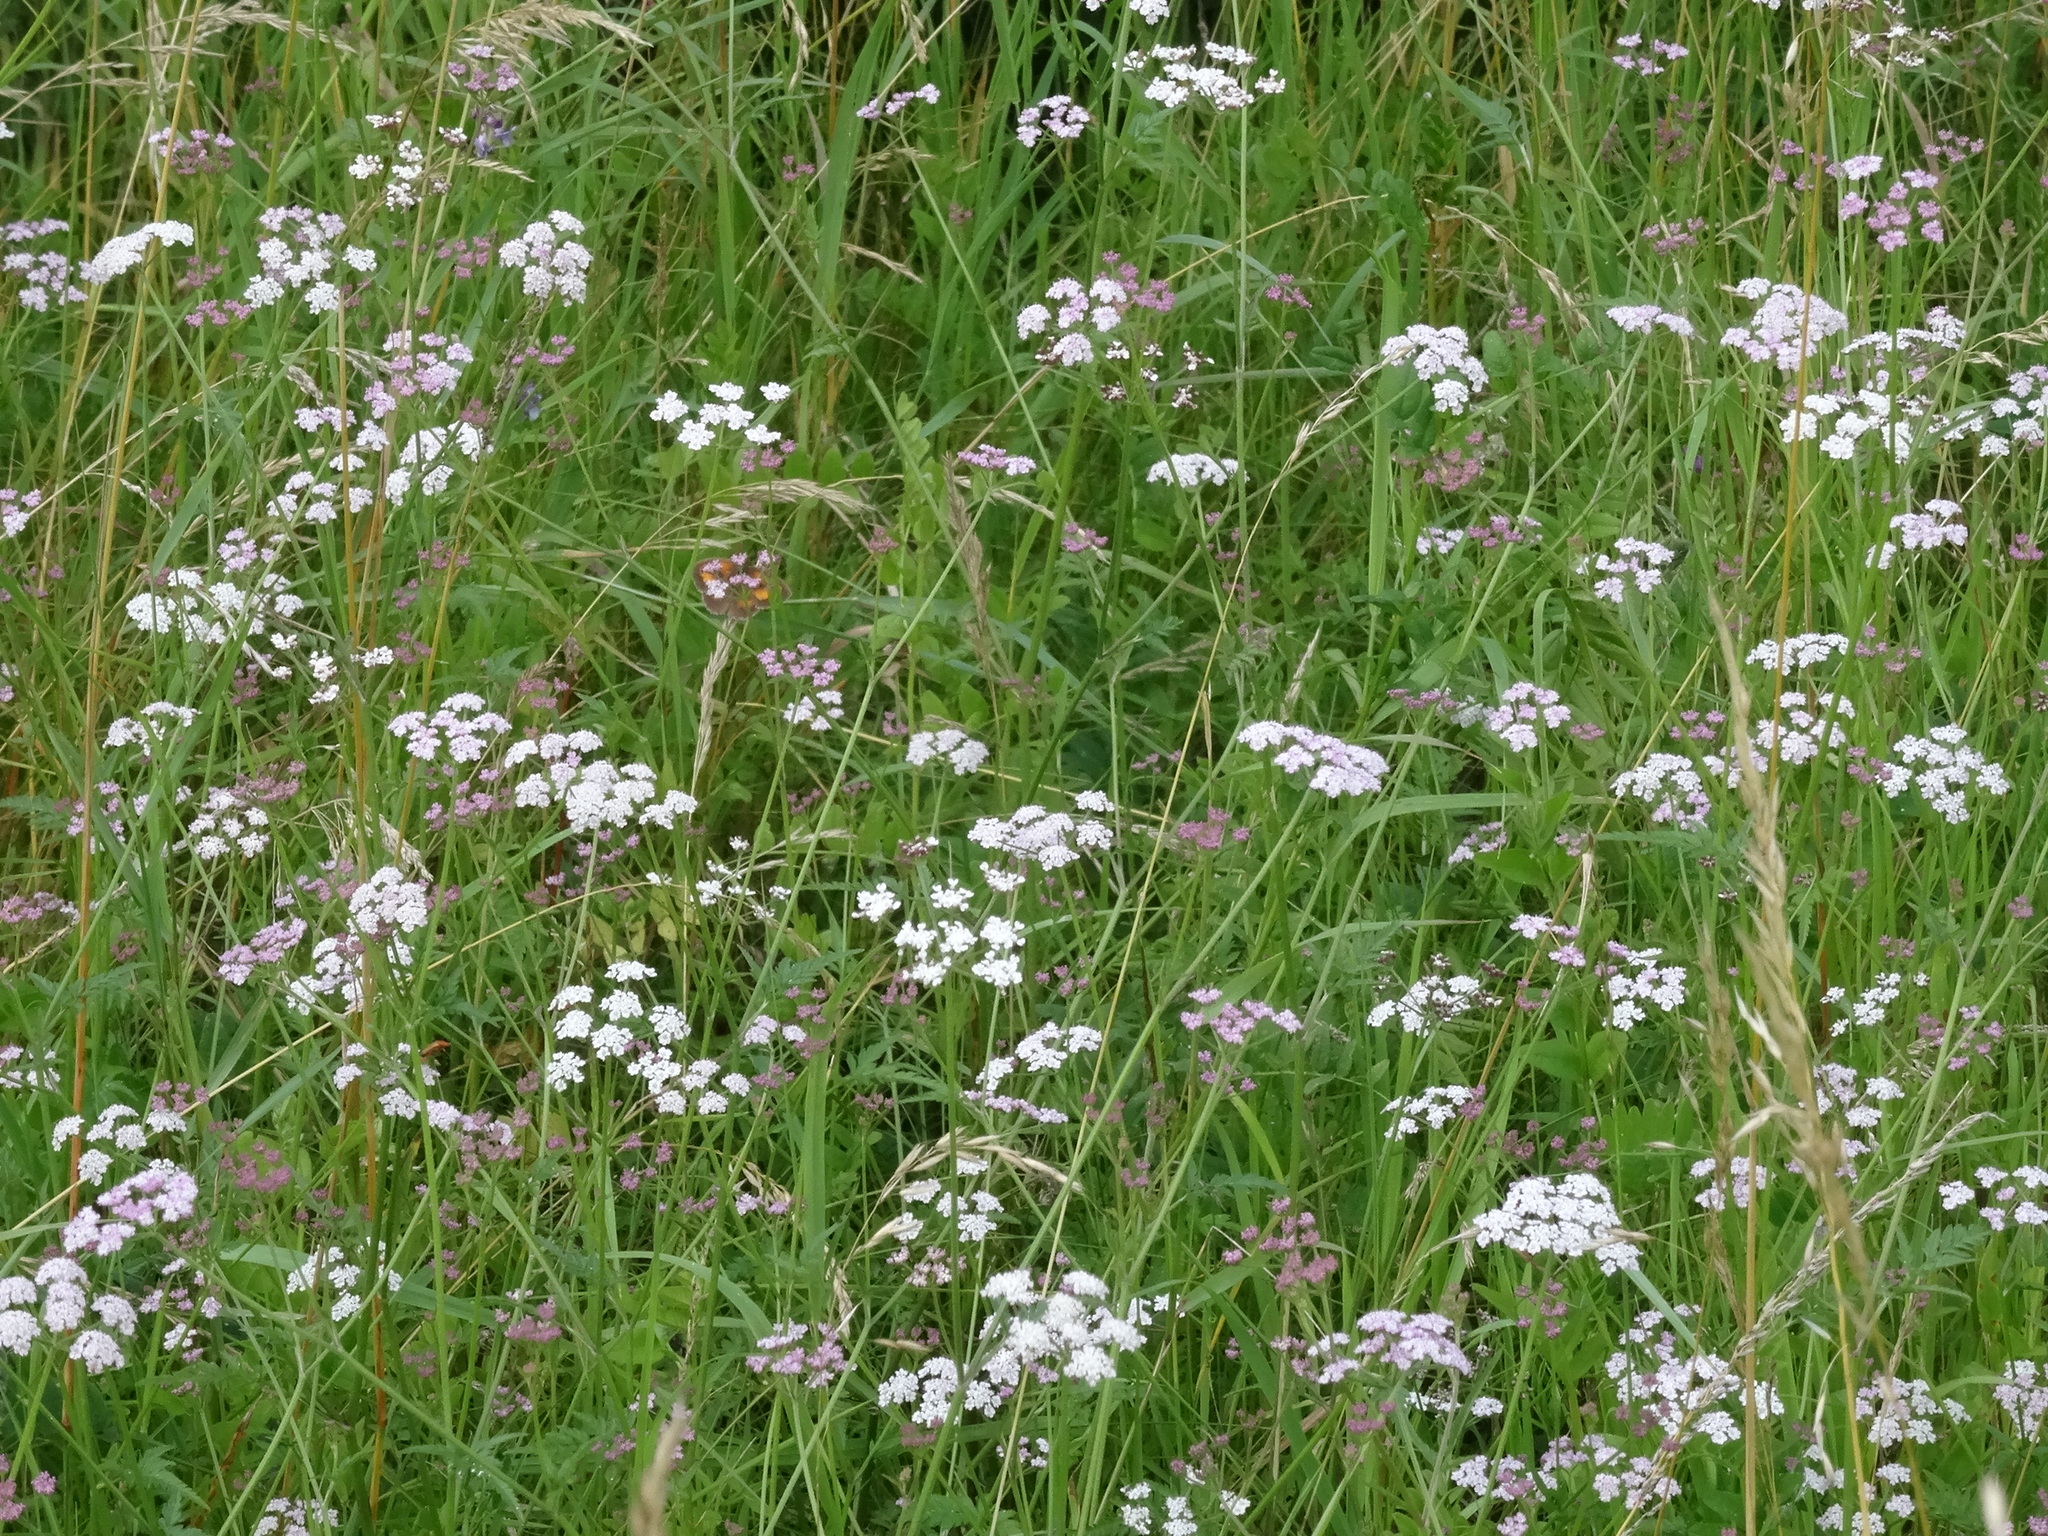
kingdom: Plantae
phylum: Tracheophyta
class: Magnoliopsida
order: Apiales
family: Apiaceae
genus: Torilis
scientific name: Torilis japonica
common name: Upright hedge-parsley
